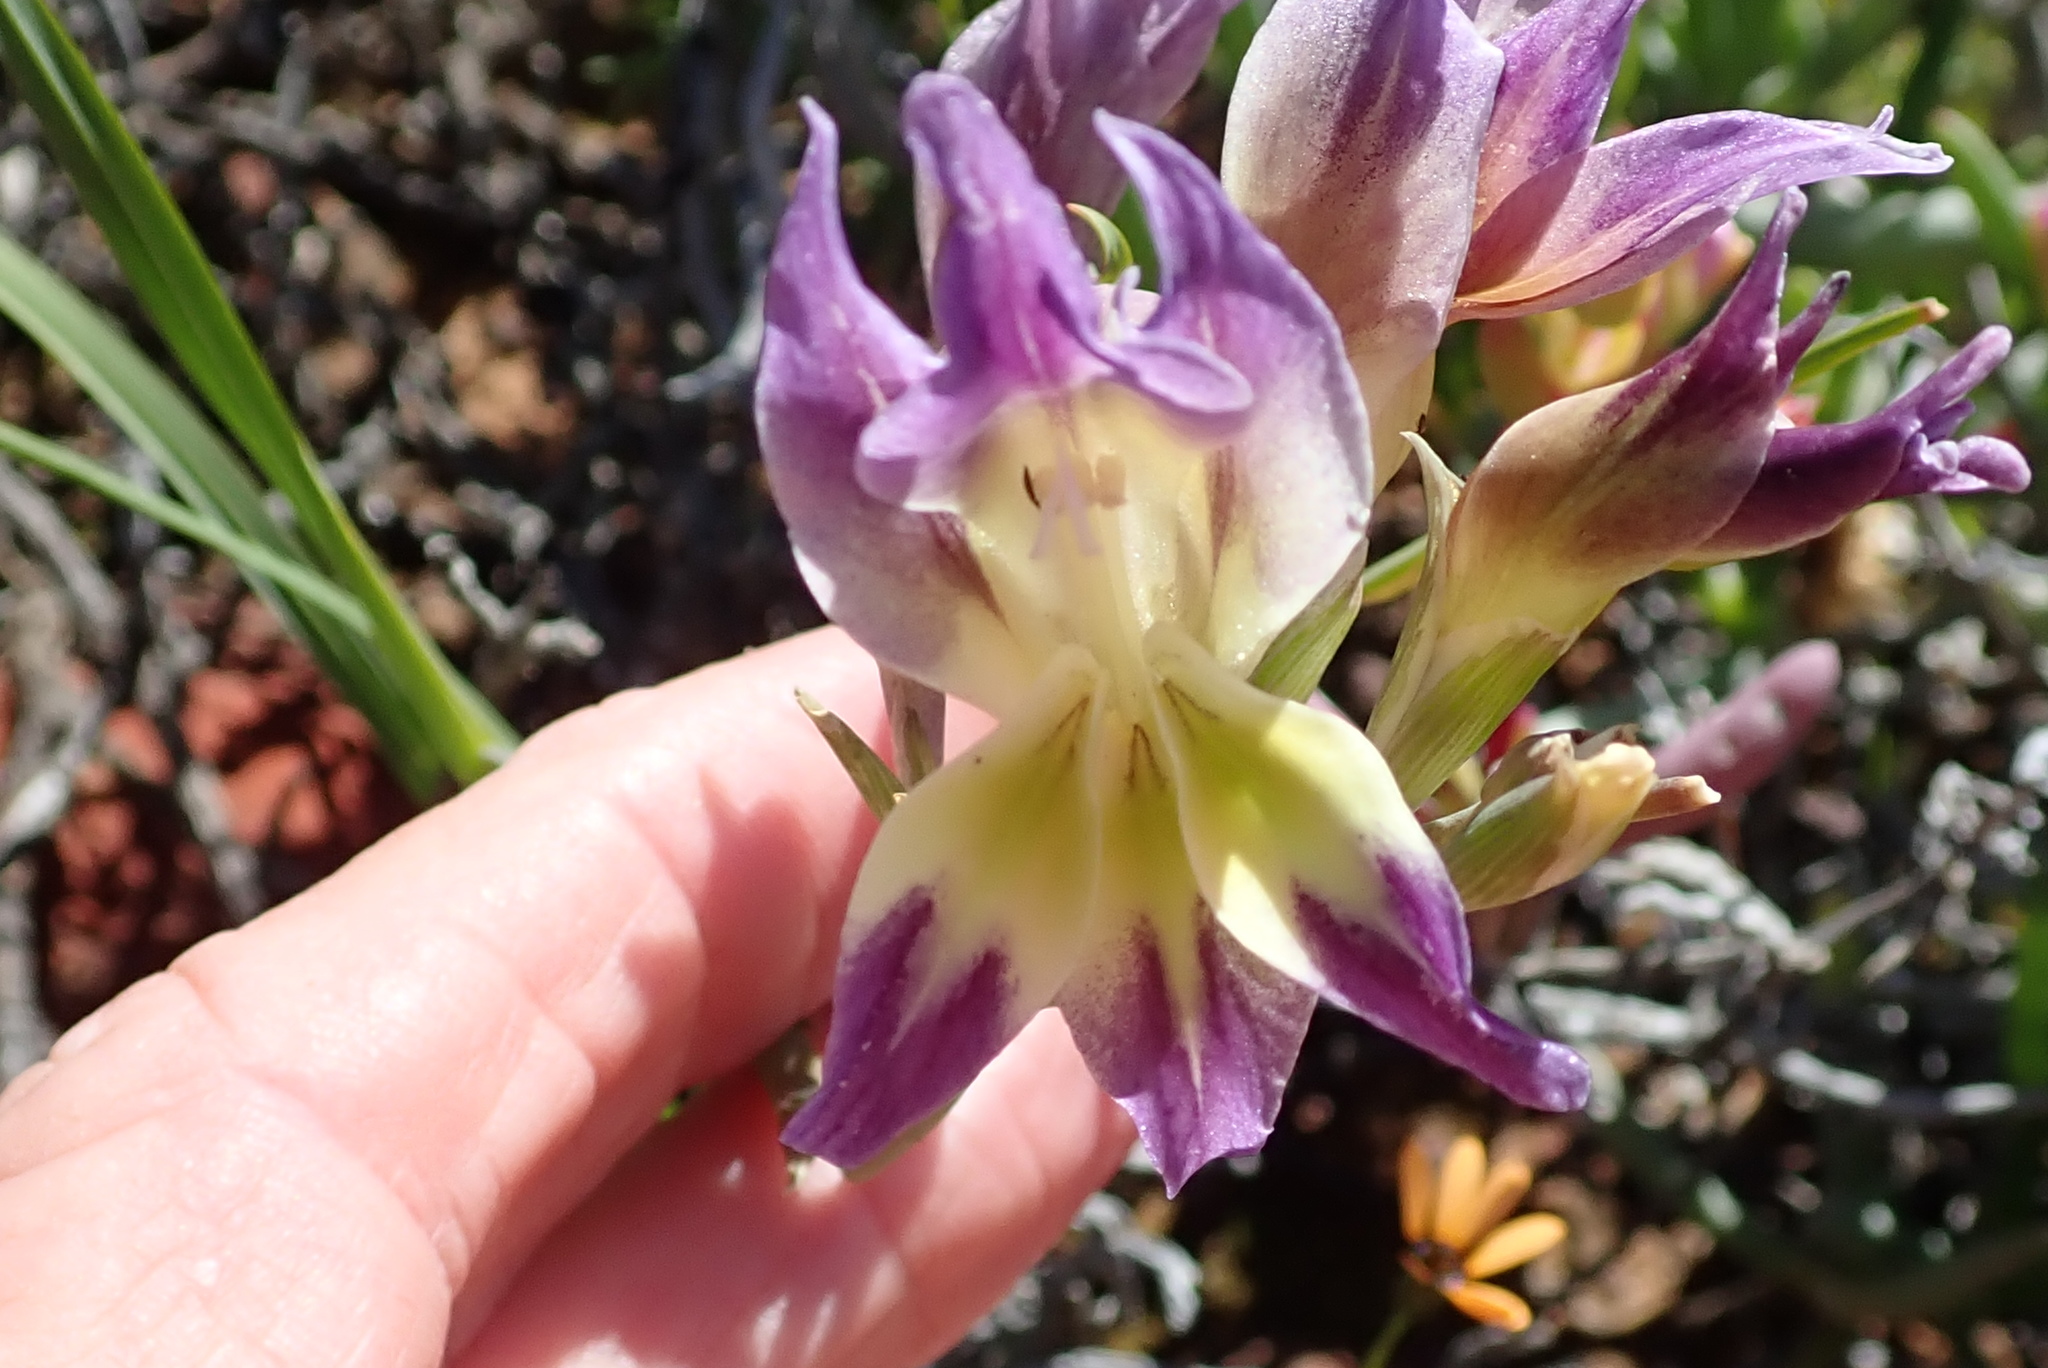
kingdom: Plantae
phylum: Tracheophyta
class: Liliopsida
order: Asparagales
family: Iridaceae
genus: Gladiolus
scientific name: Gladiolus venustus
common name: Purple kalkoentjie
